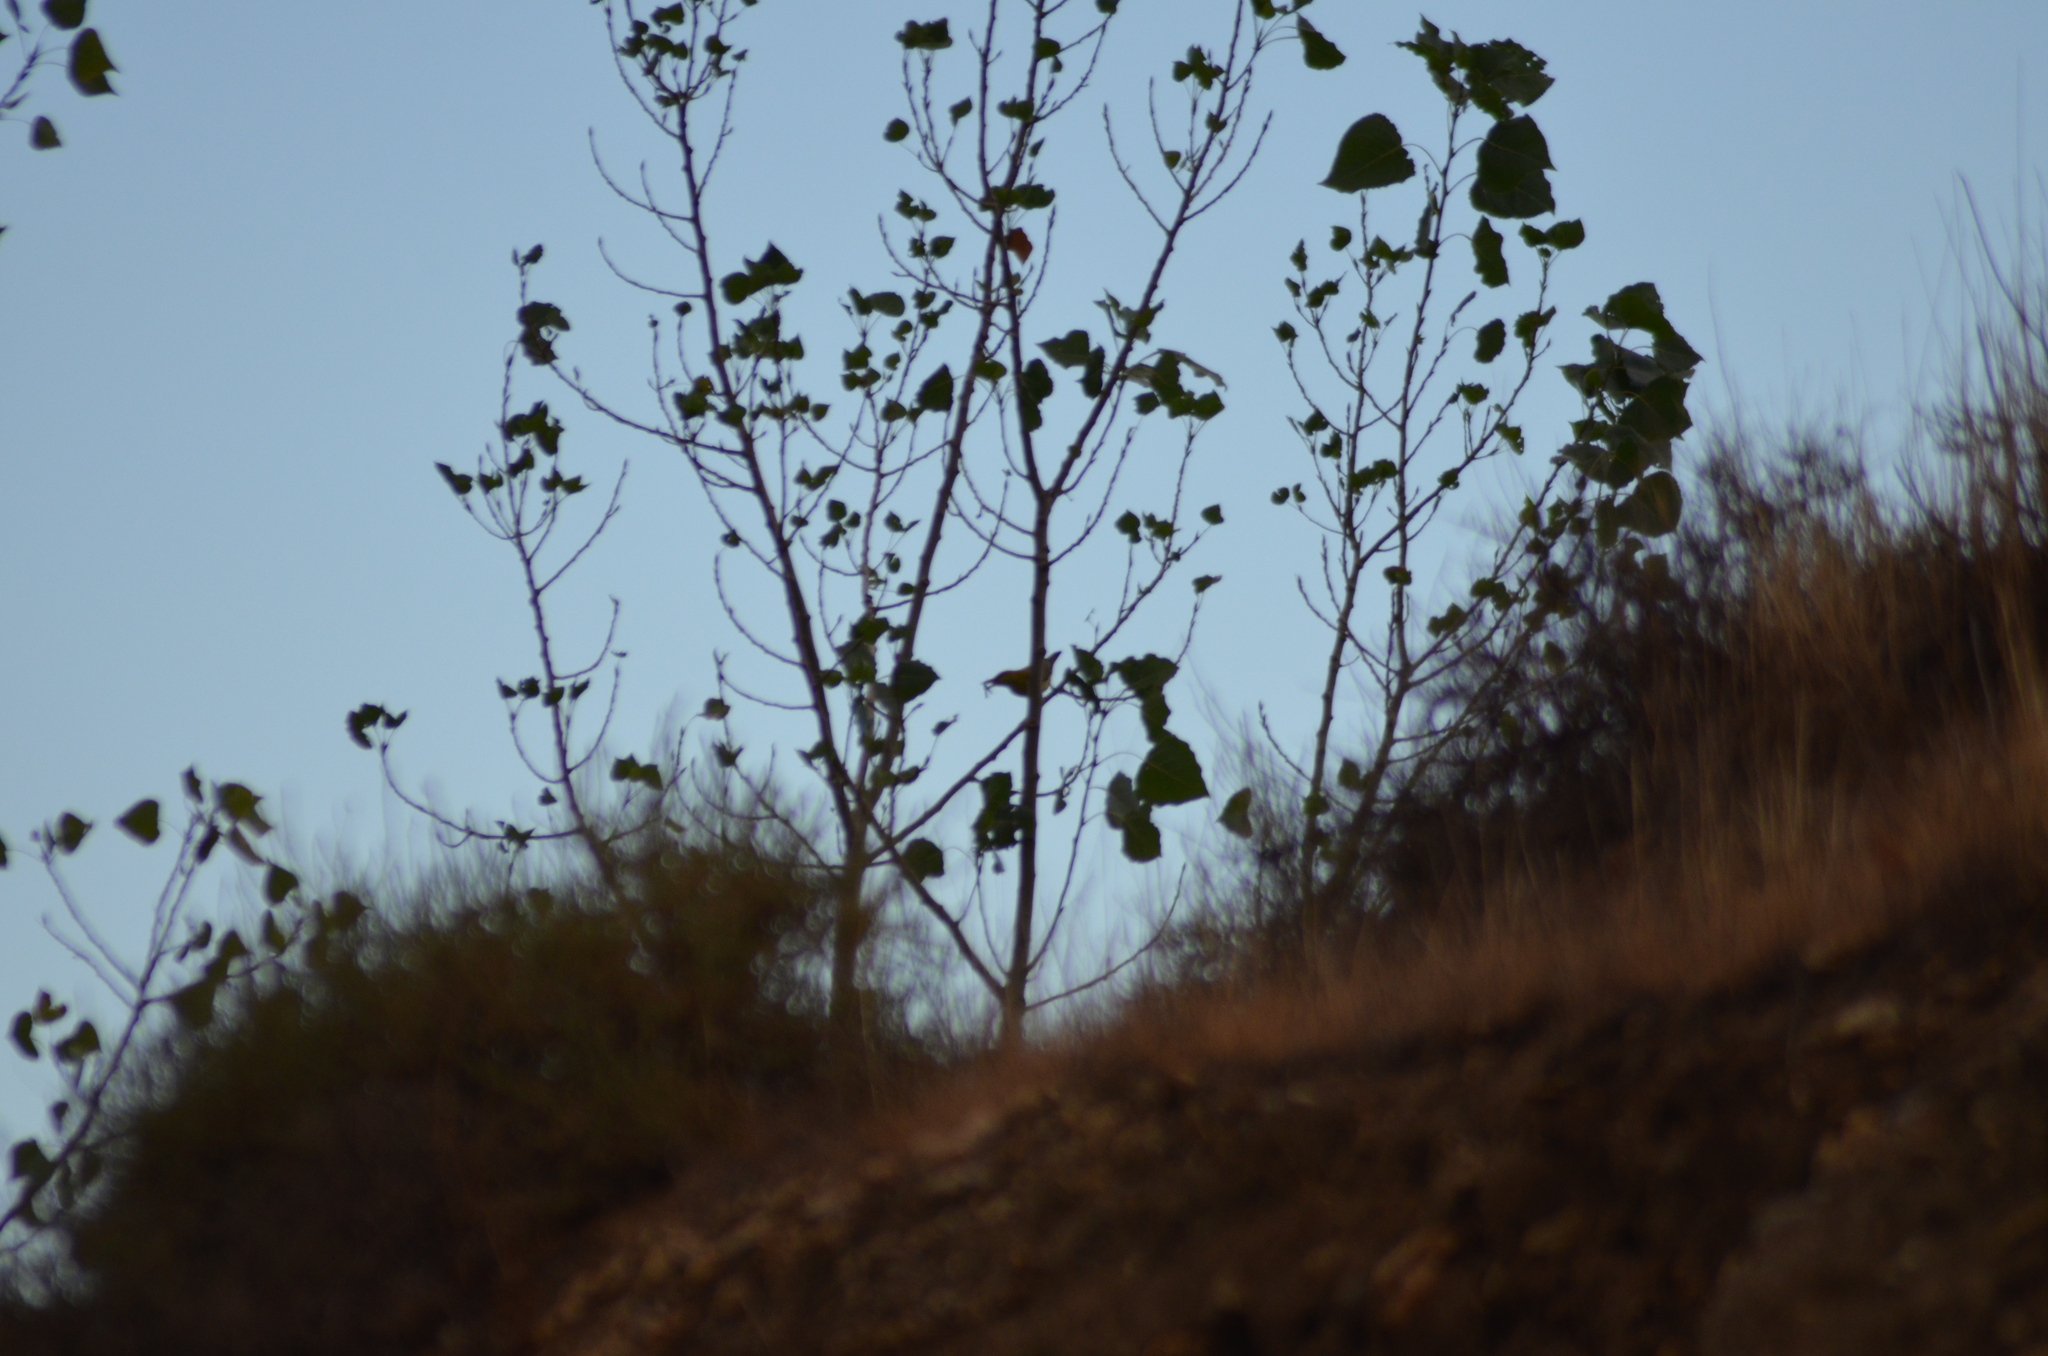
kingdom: Animalia
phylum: Chordata
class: Aves
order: Passeriformes
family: Oriolidae
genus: Oriolus
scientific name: Oriolus oriolus
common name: Eurasian golden oriole
